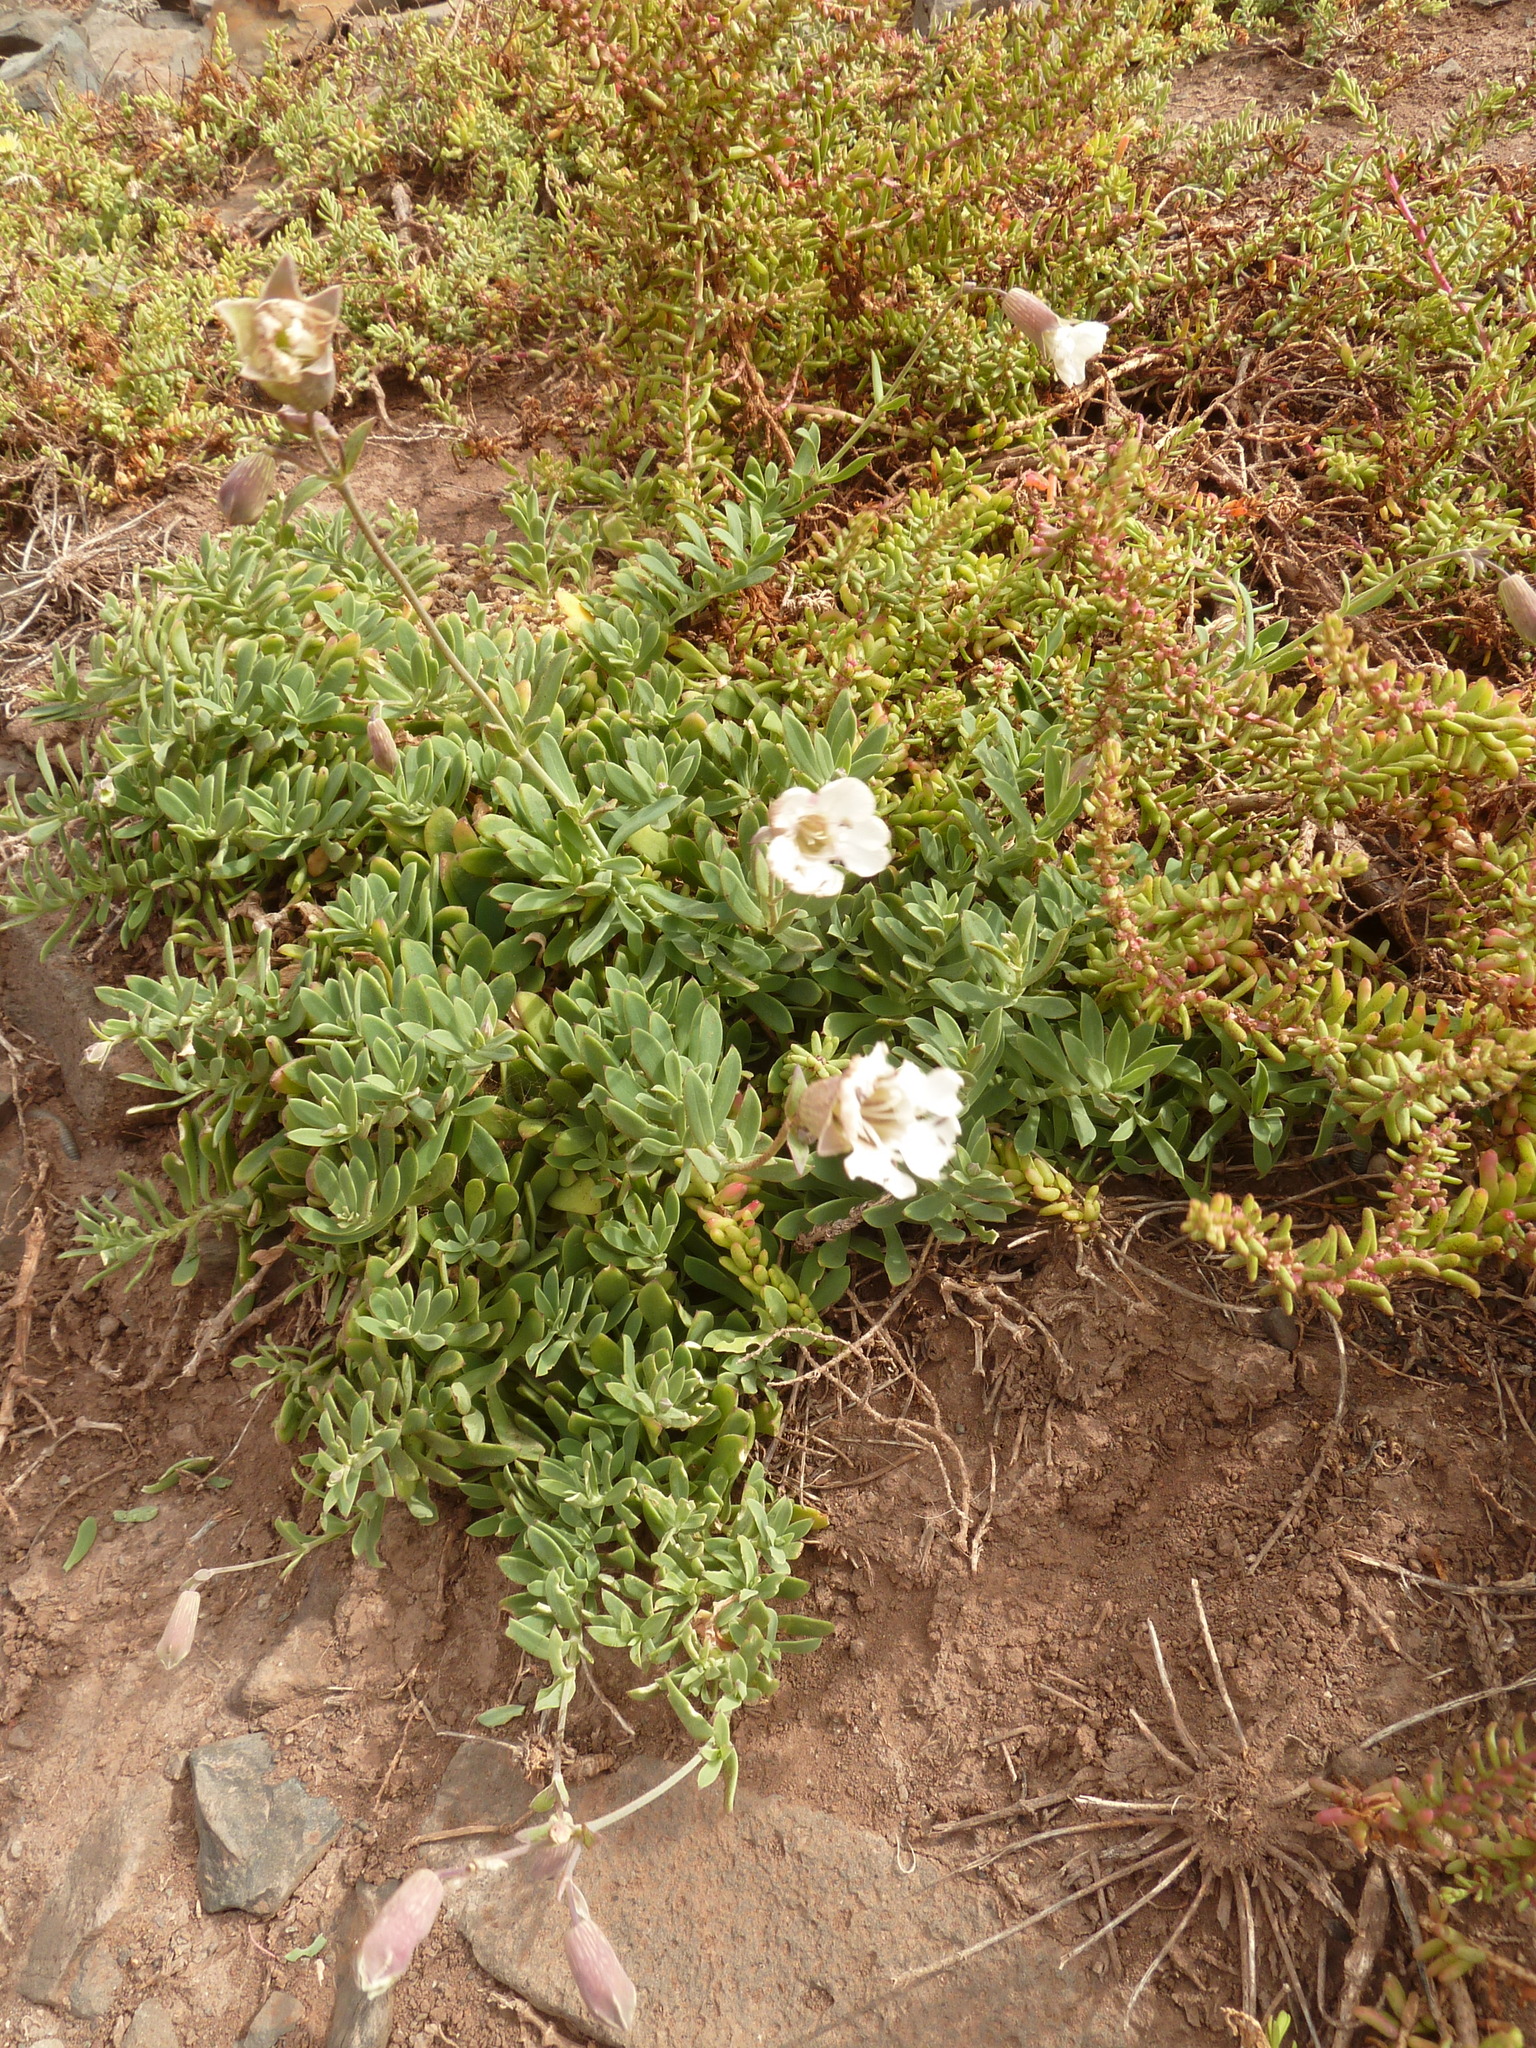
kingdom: Plantae
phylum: Tracheophyta
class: Magnoliopsida
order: Caryophyllales
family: Caryophyllaceae
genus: Silene
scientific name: Silene uniflora
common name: Sea campion
